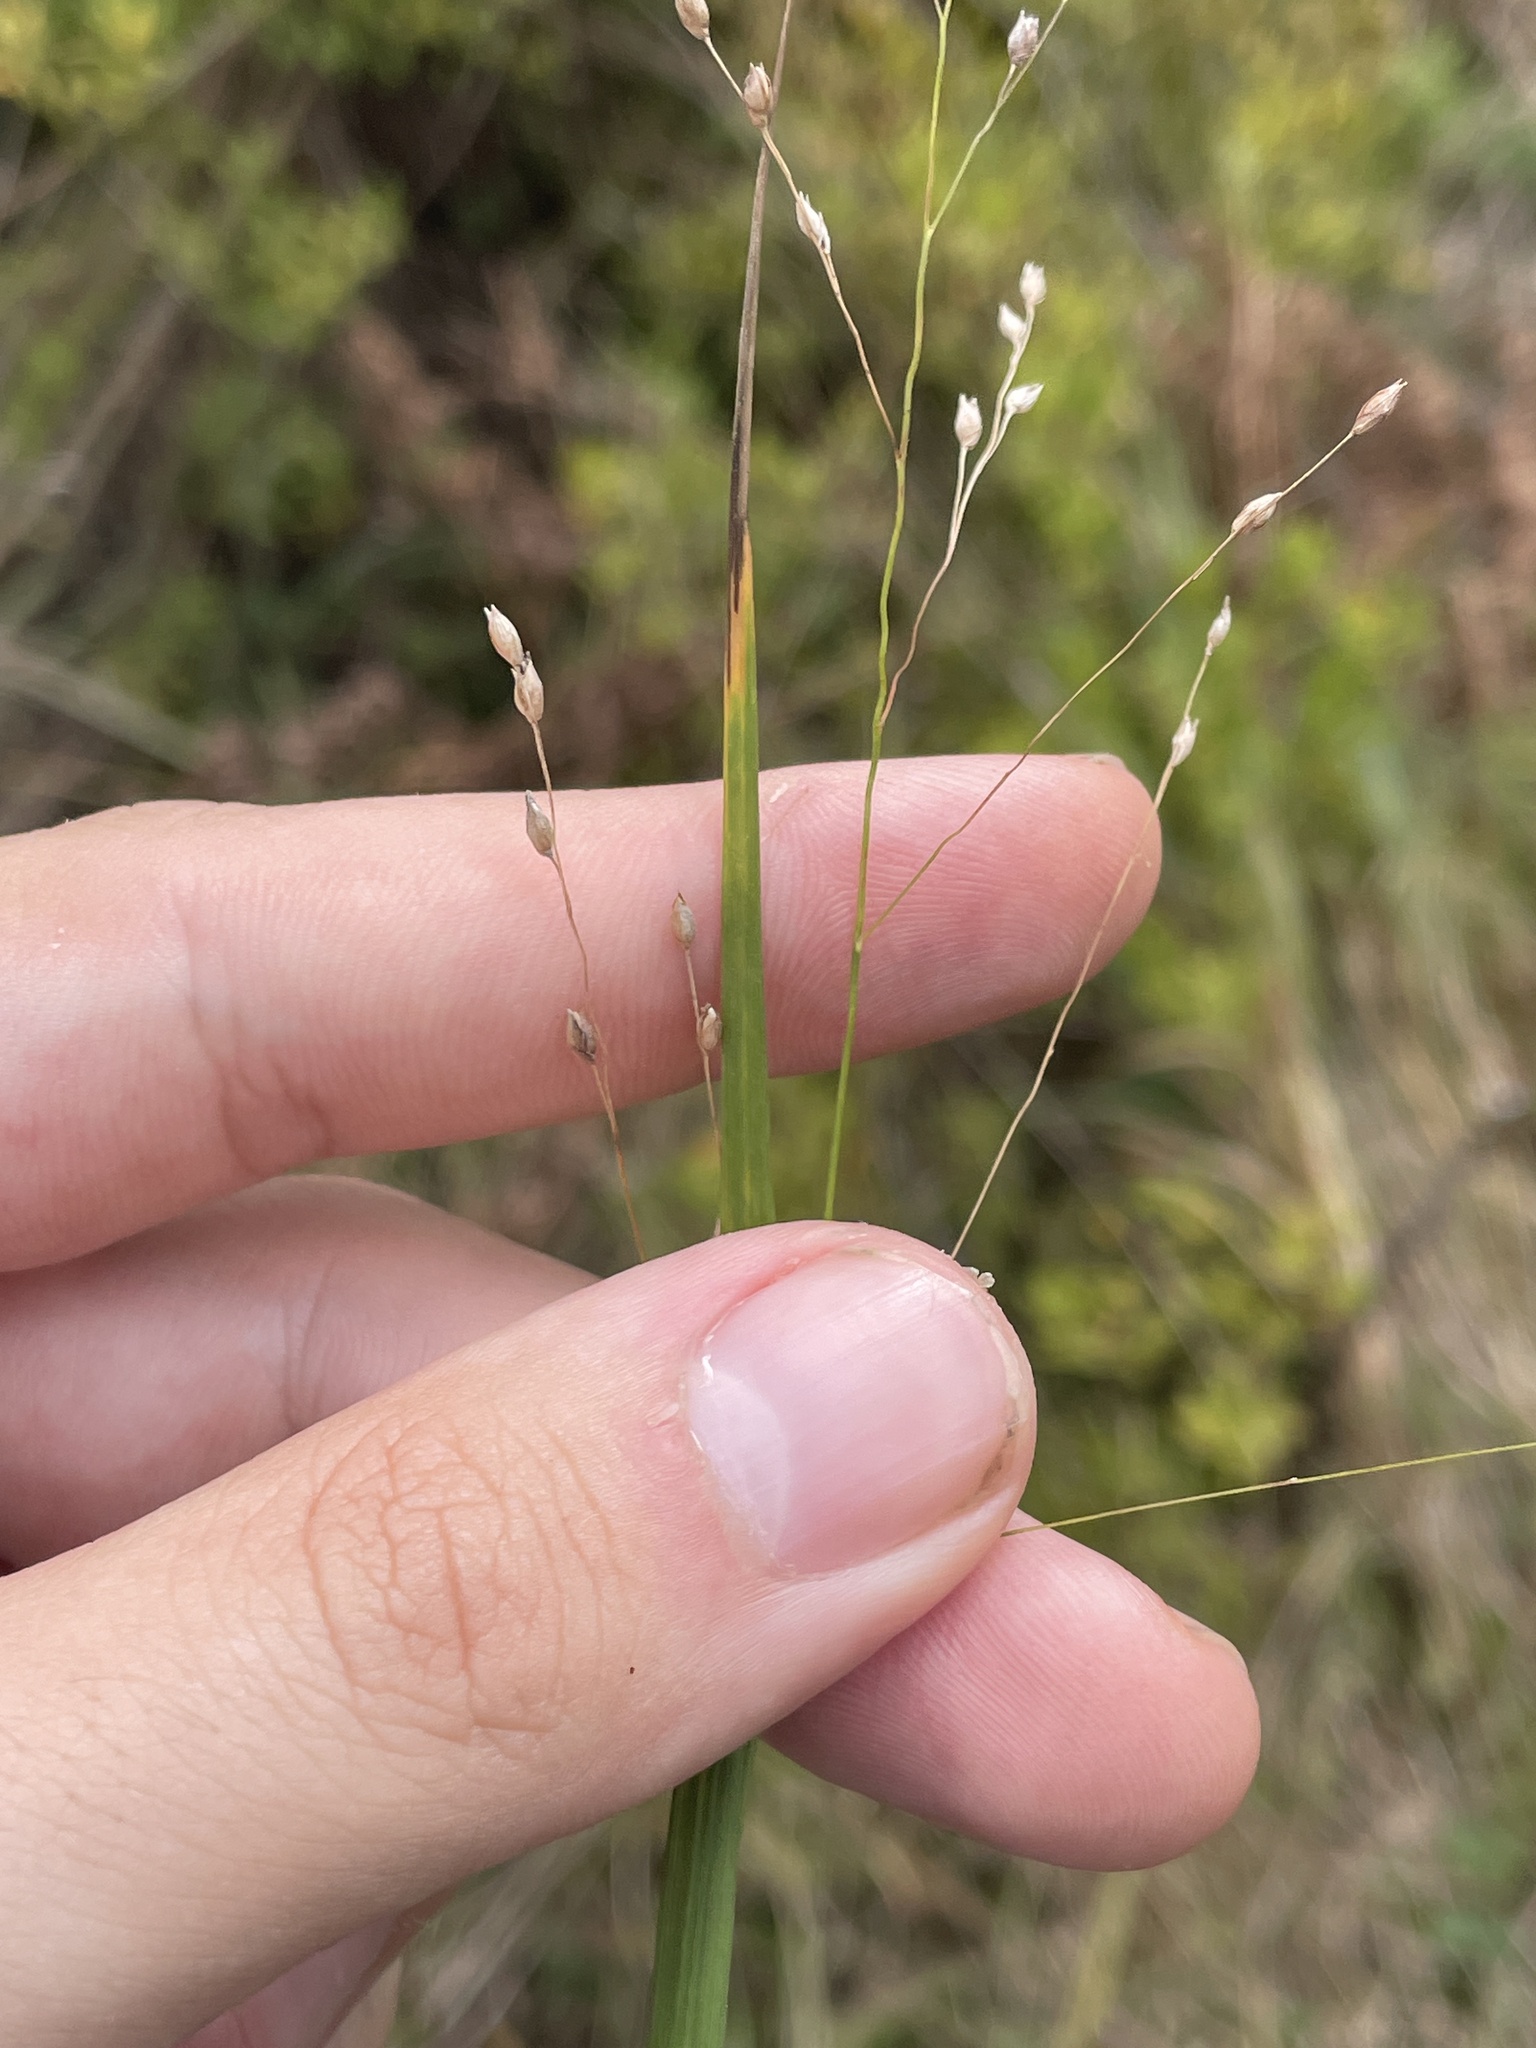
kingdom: Plantae
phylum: Tracheophyta
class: Liliopsida
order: Poales
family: Poaceae
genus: Panicum
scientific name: Panicum virgatum
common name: Switchgrass
